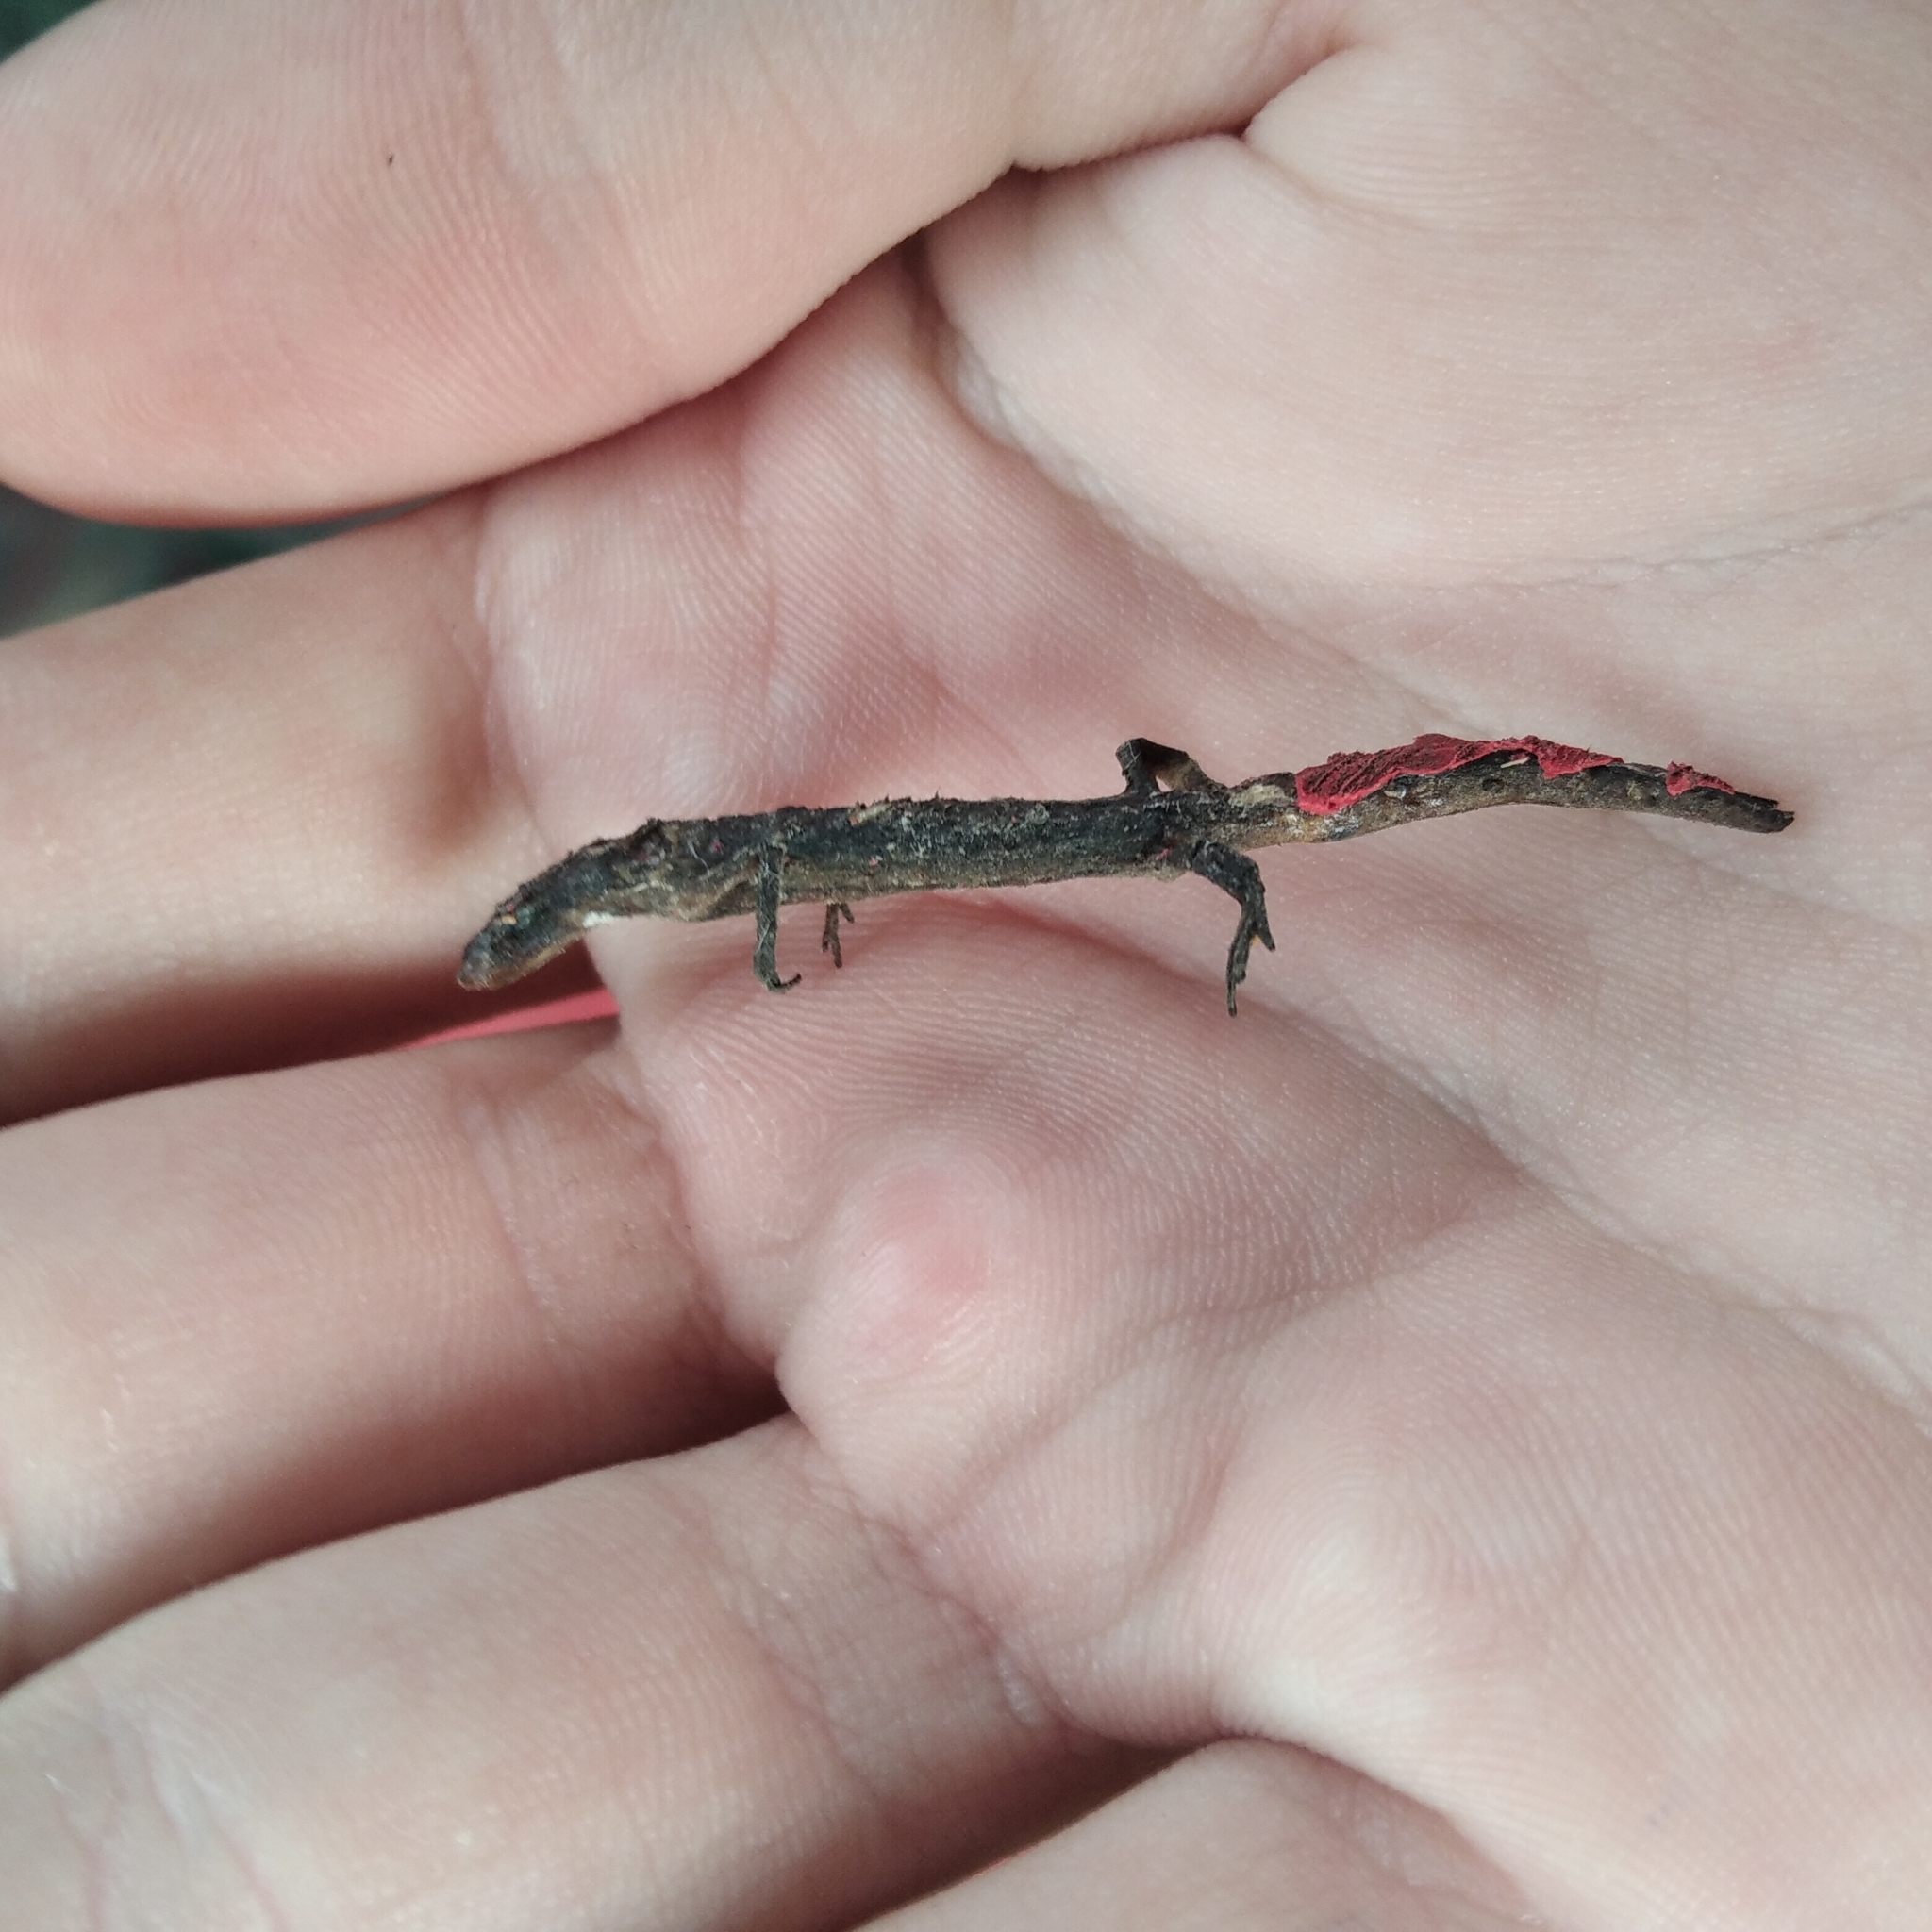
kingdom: Animalia
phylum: Chordata
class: Amphibia
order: Caudata
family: Salamandridae
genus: Lissotriton
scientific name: Lissotriton vulgaris
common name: Smooth newt
